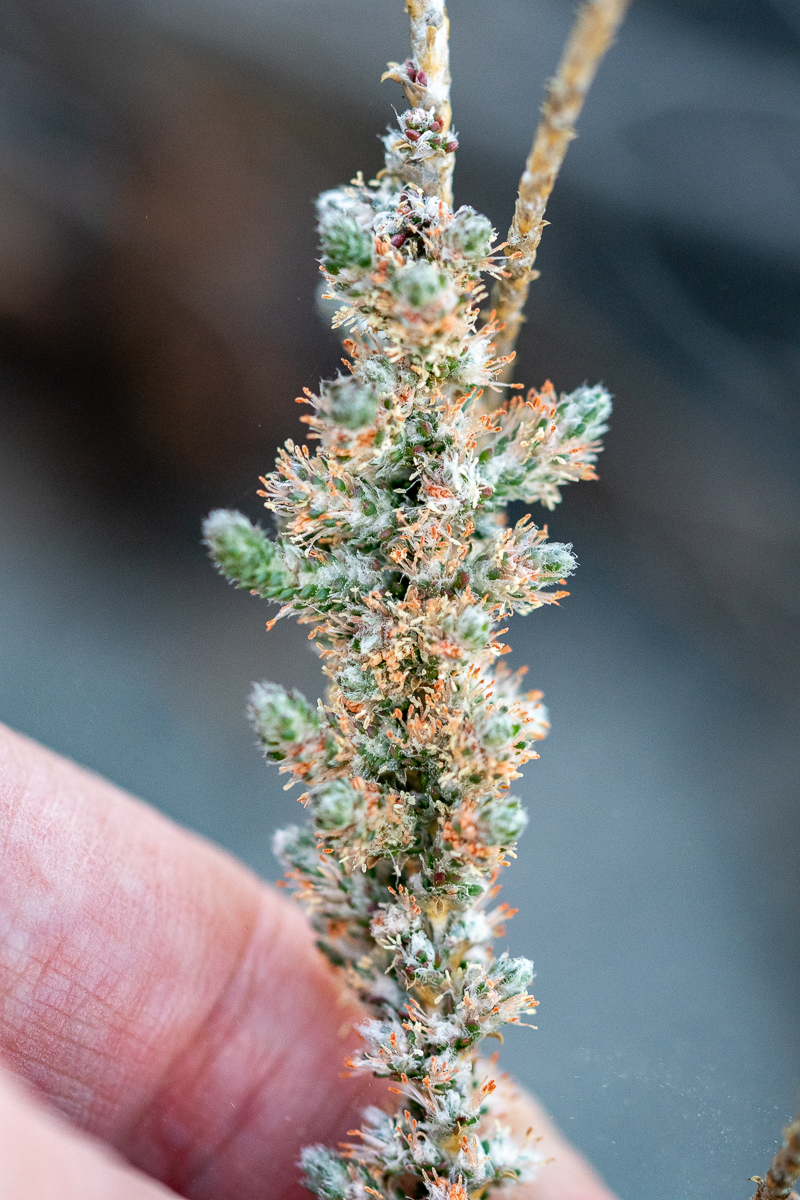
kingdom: Plantae
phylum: Tracheophyta
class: Magnoliopsida
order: Caryophyllales
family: Molluginaceae
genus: Polpoda
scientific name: Polpoda capensis
